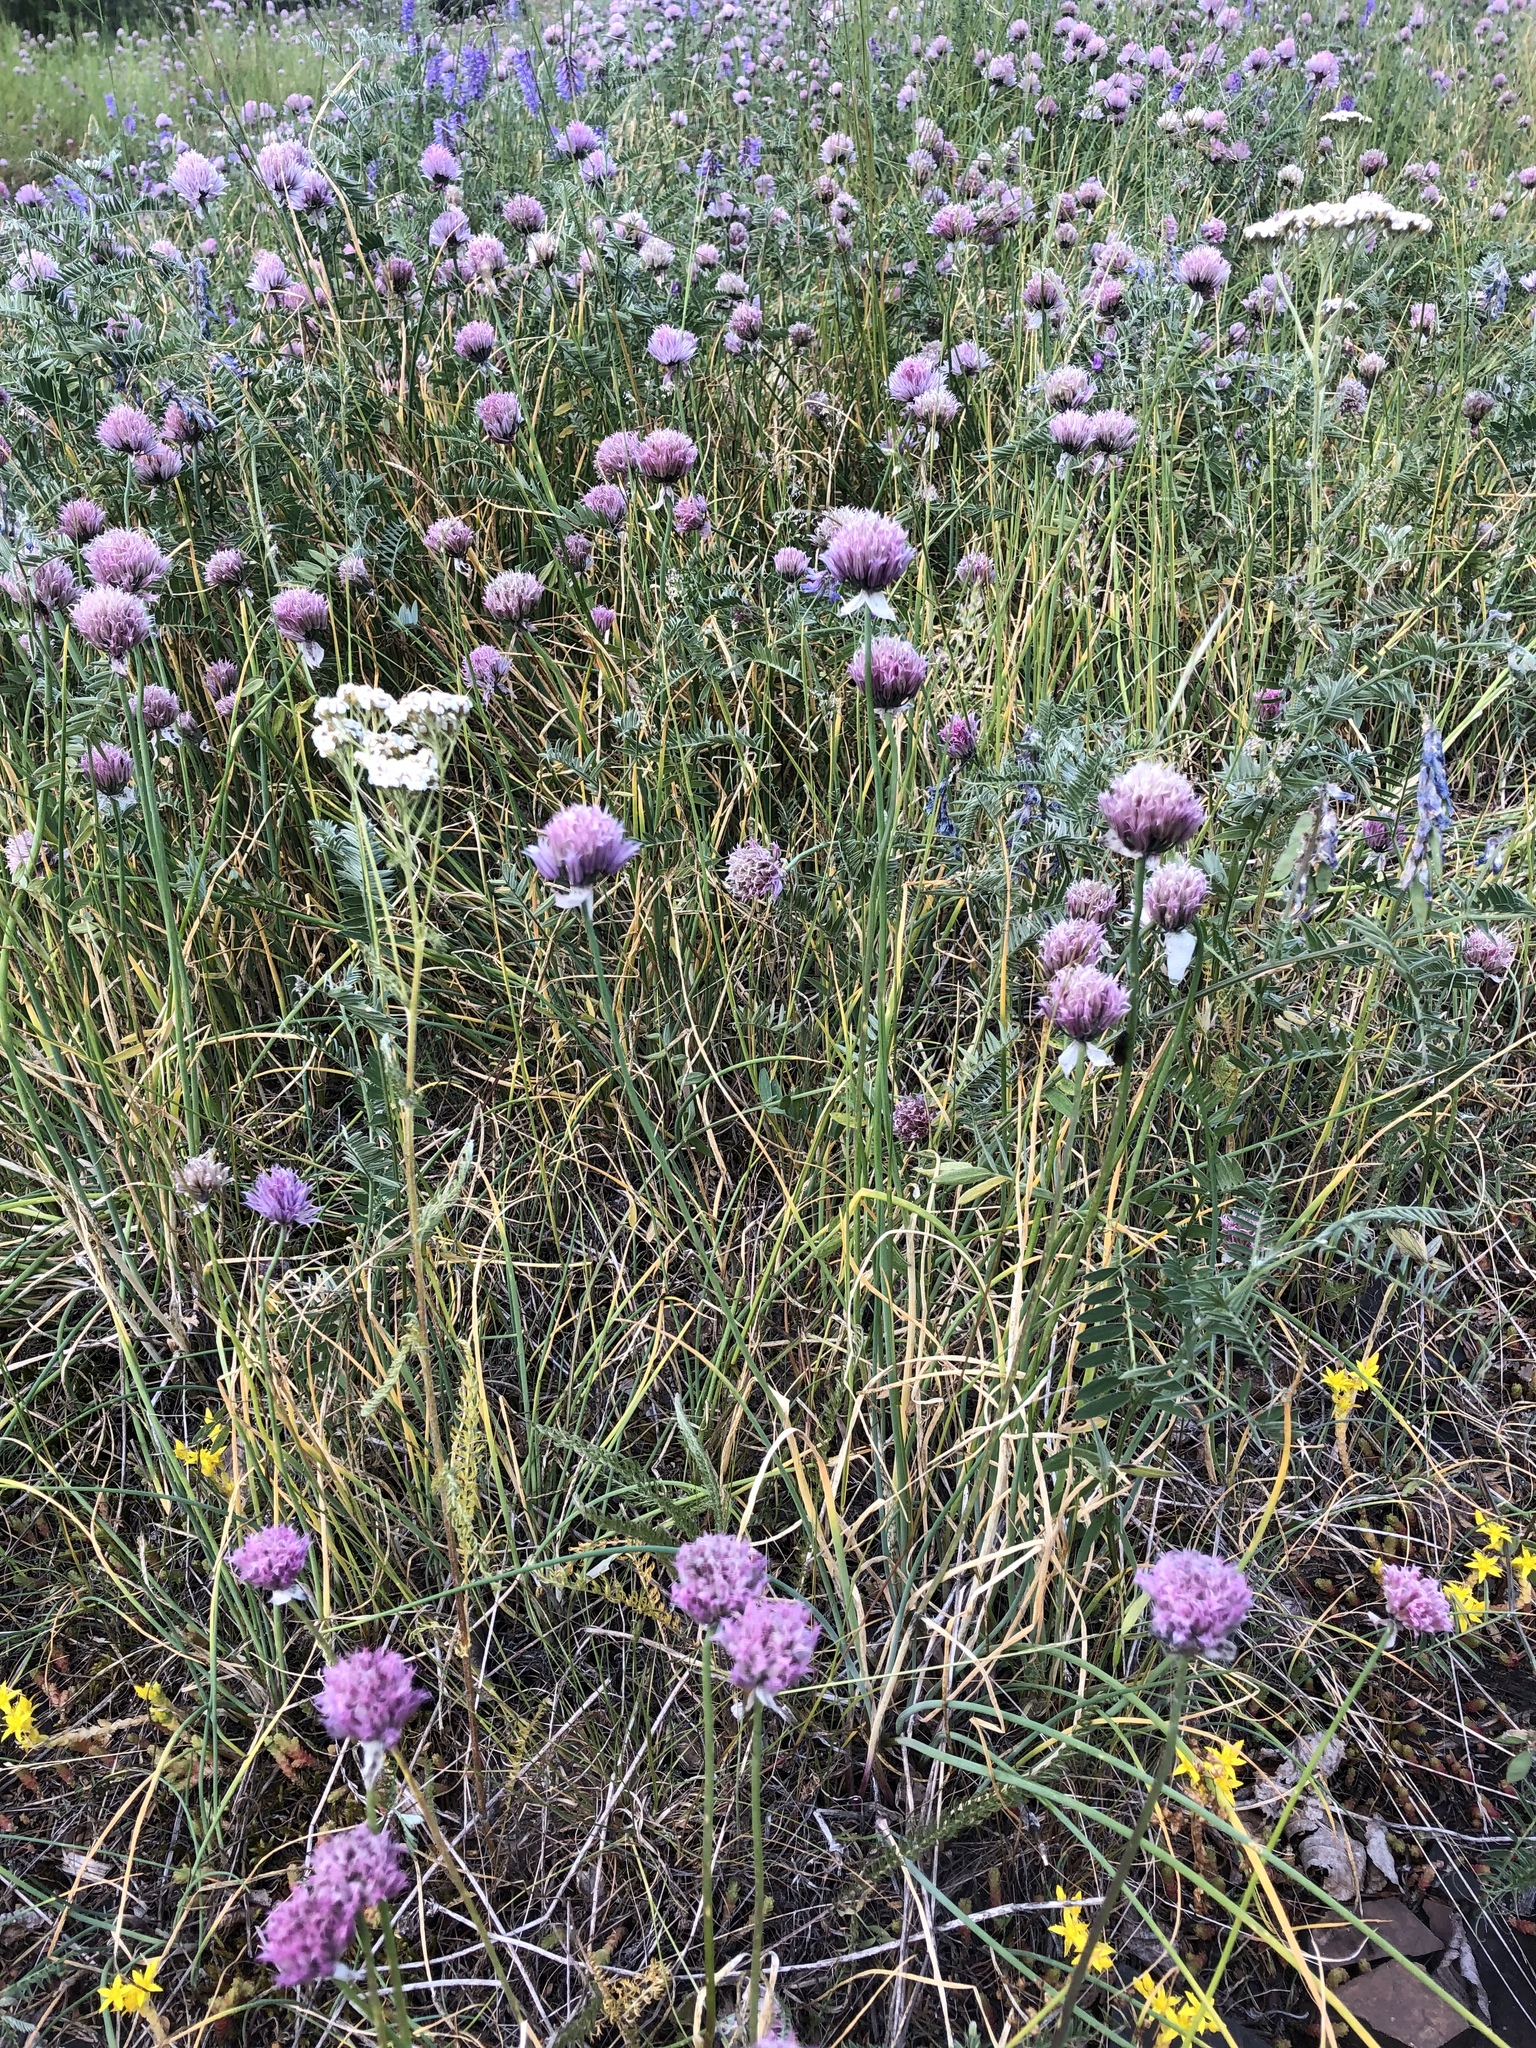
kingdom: Plantae
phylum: Tracheophyta
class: Liliopsida
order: Asparagales
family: Amaryllidaceae
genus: Allium
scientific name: Allium schoenoprasum
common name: Chives
